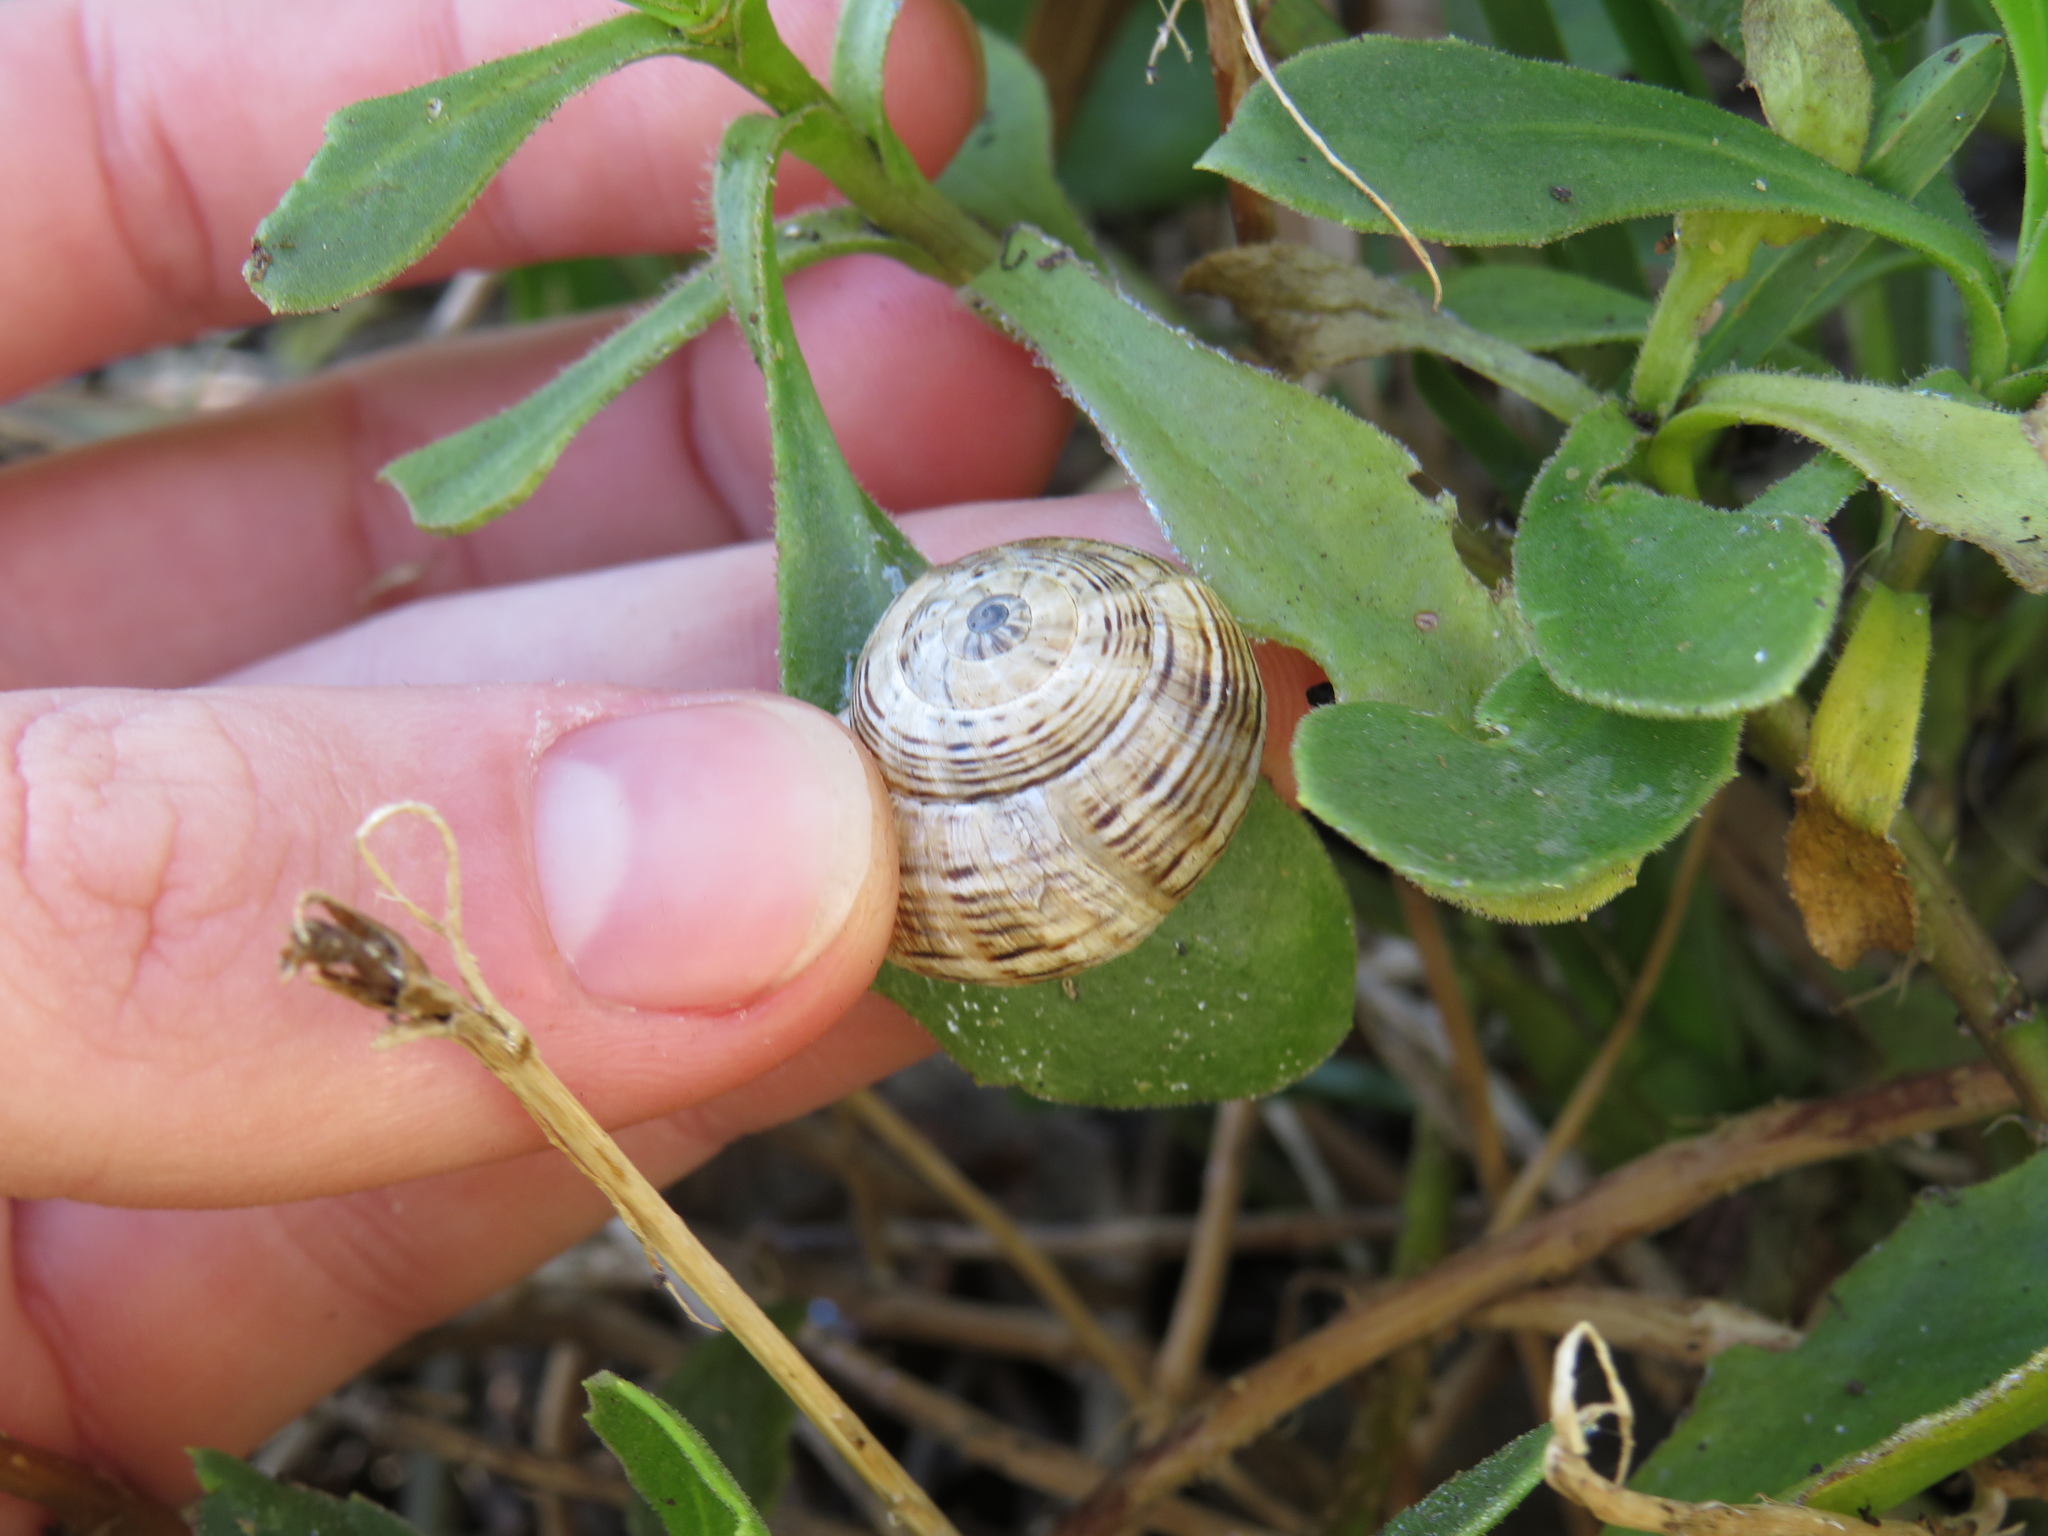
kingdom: Animalia
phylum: Mollusca
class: Gastropoda
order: Stylommatophora
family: Helicidae
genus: Theba
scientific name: Theba pisana
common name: White snail
